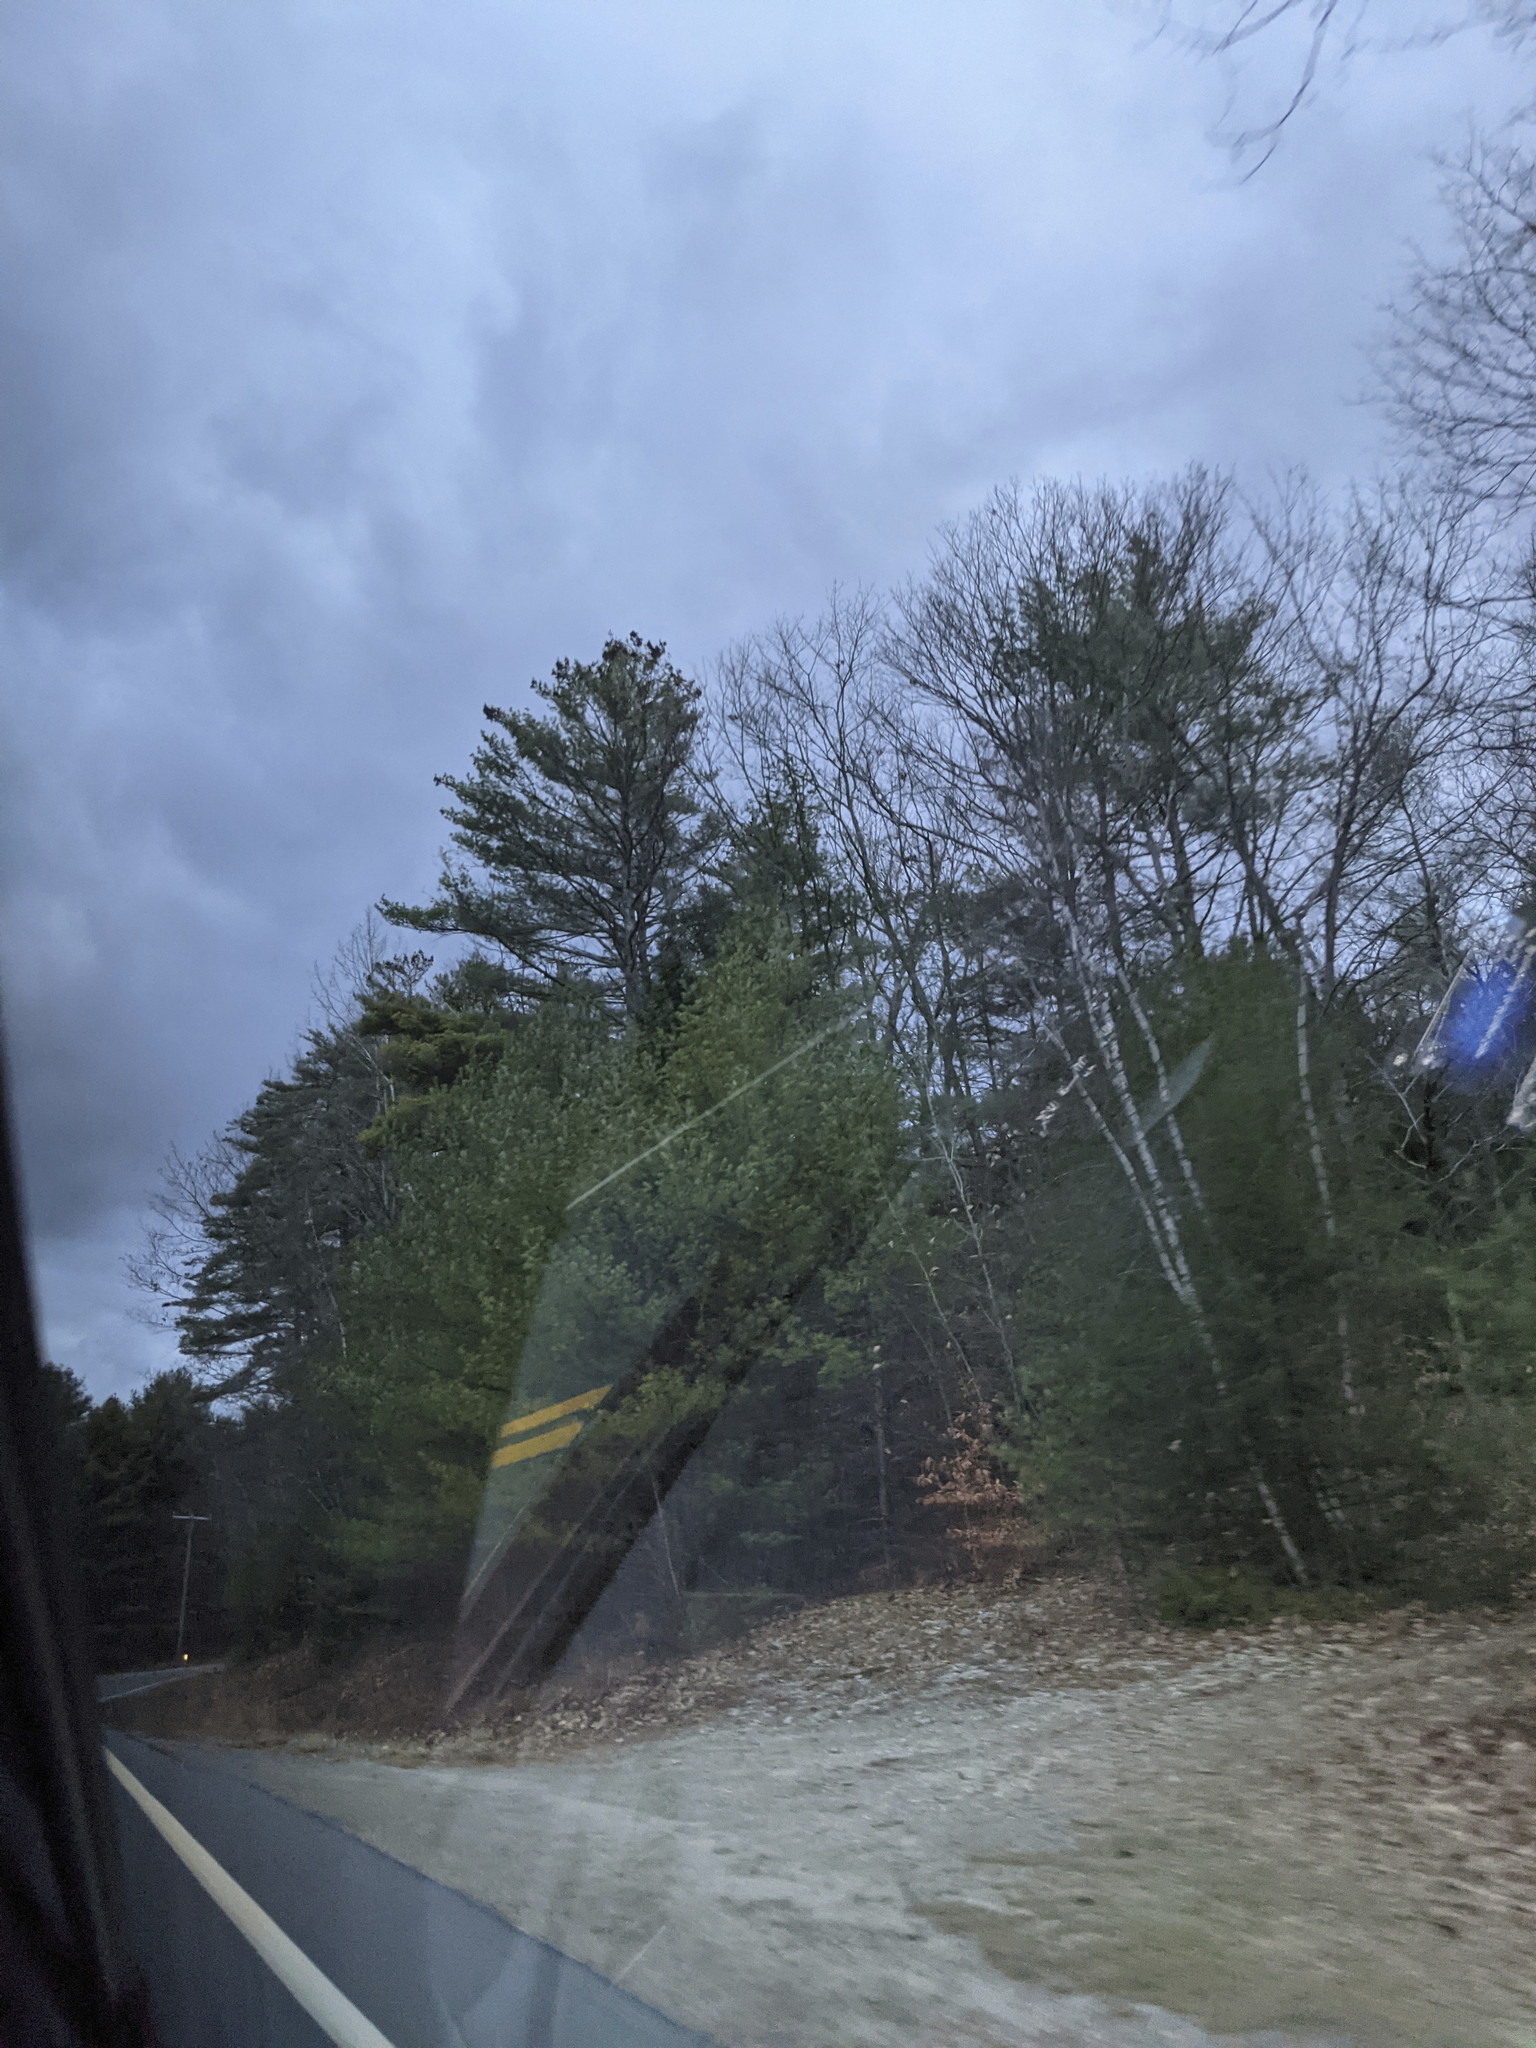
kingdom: Plantae
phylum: Tracheophyta
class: Pinopsida
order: Pinales
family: Pinaceae
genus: Pinus
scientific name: Pinus strobus
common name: Weymouth pine
